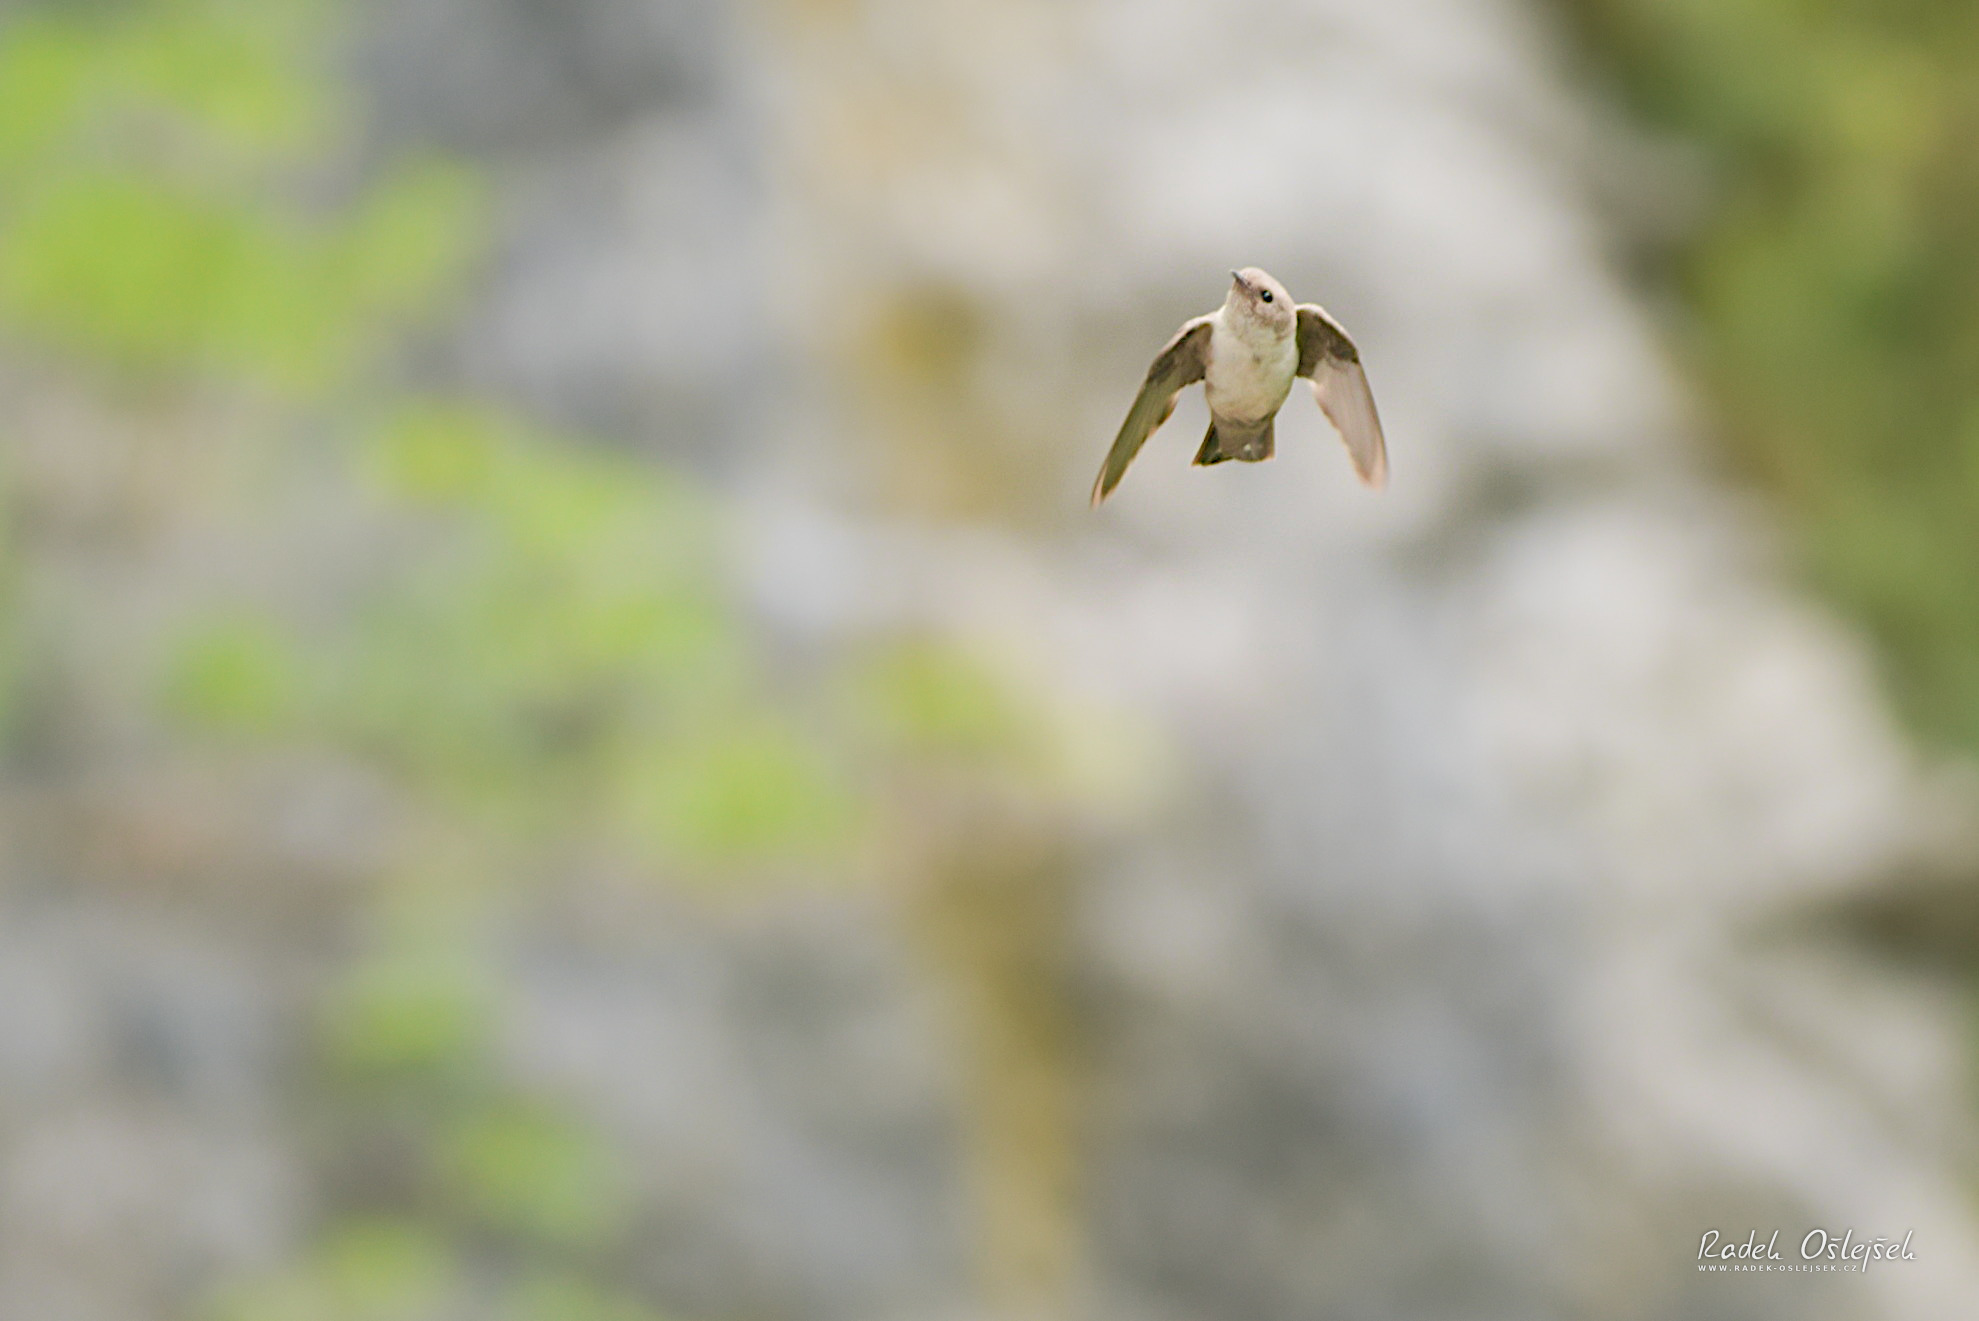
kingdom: Animalia
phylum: Chordata
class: Aves
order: Passeriformes
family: Hirundinidae
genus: Ptyonoprogne
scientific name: Ptyonoprogne rupestris
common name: Eurasian crag martin
